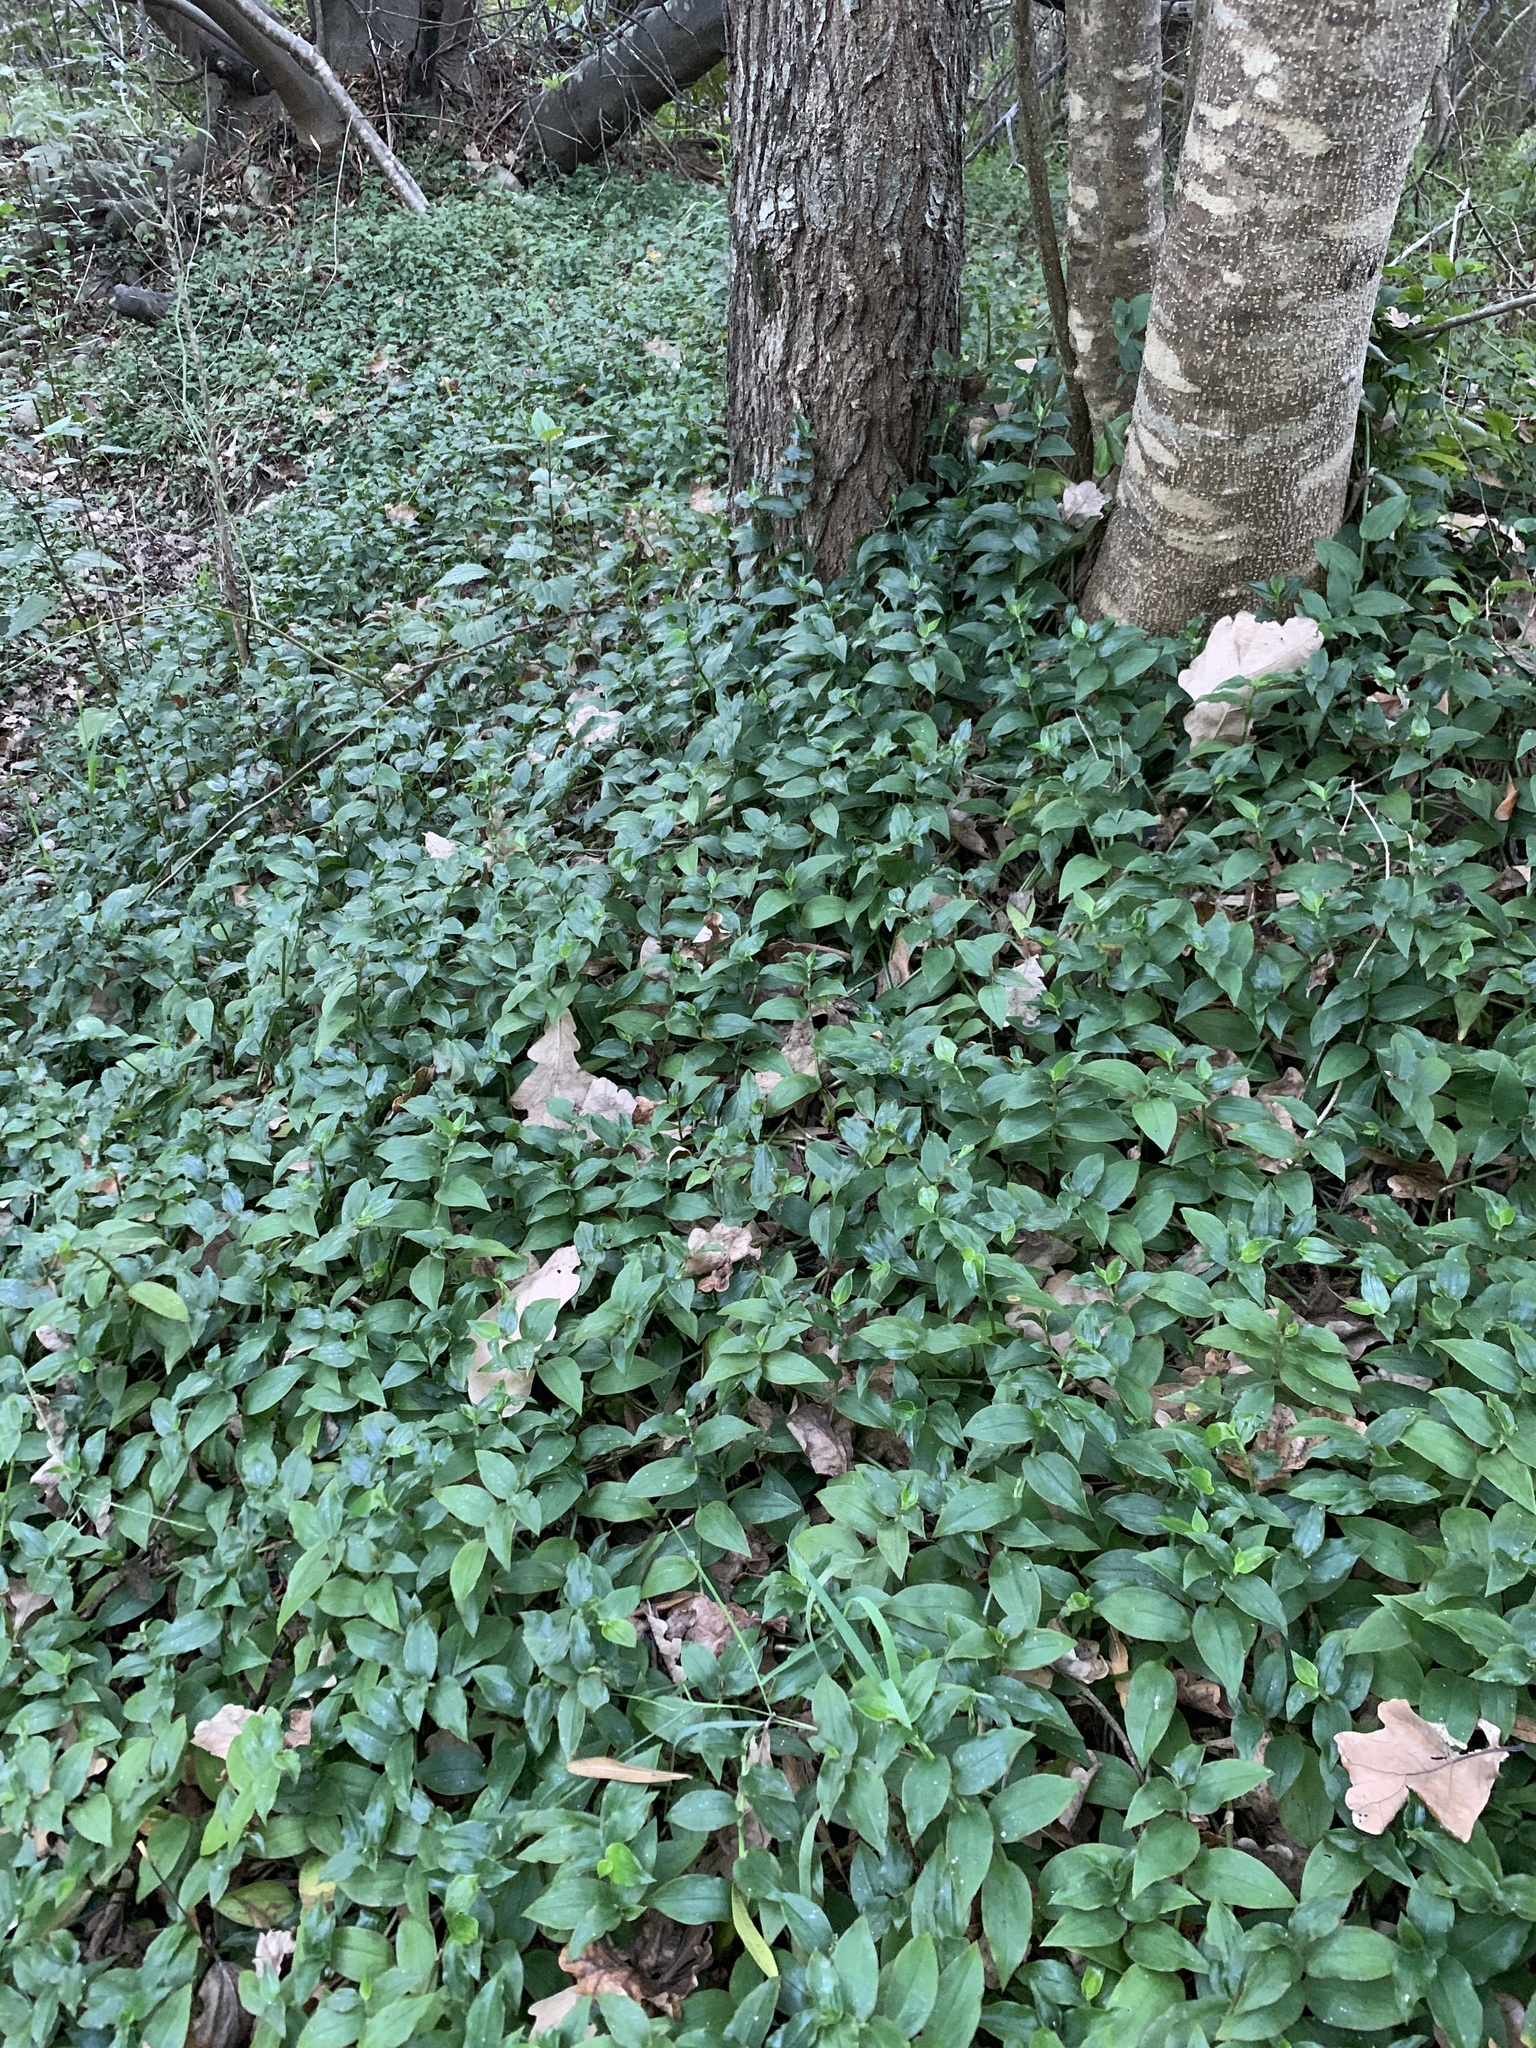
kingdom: Plantae
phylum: Tracheophyta
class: Liliopsida
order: Commelinales
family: Commelinaceae
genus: Tradescantia
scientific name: Tradescantia fluminensis
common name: Wandering-jew
